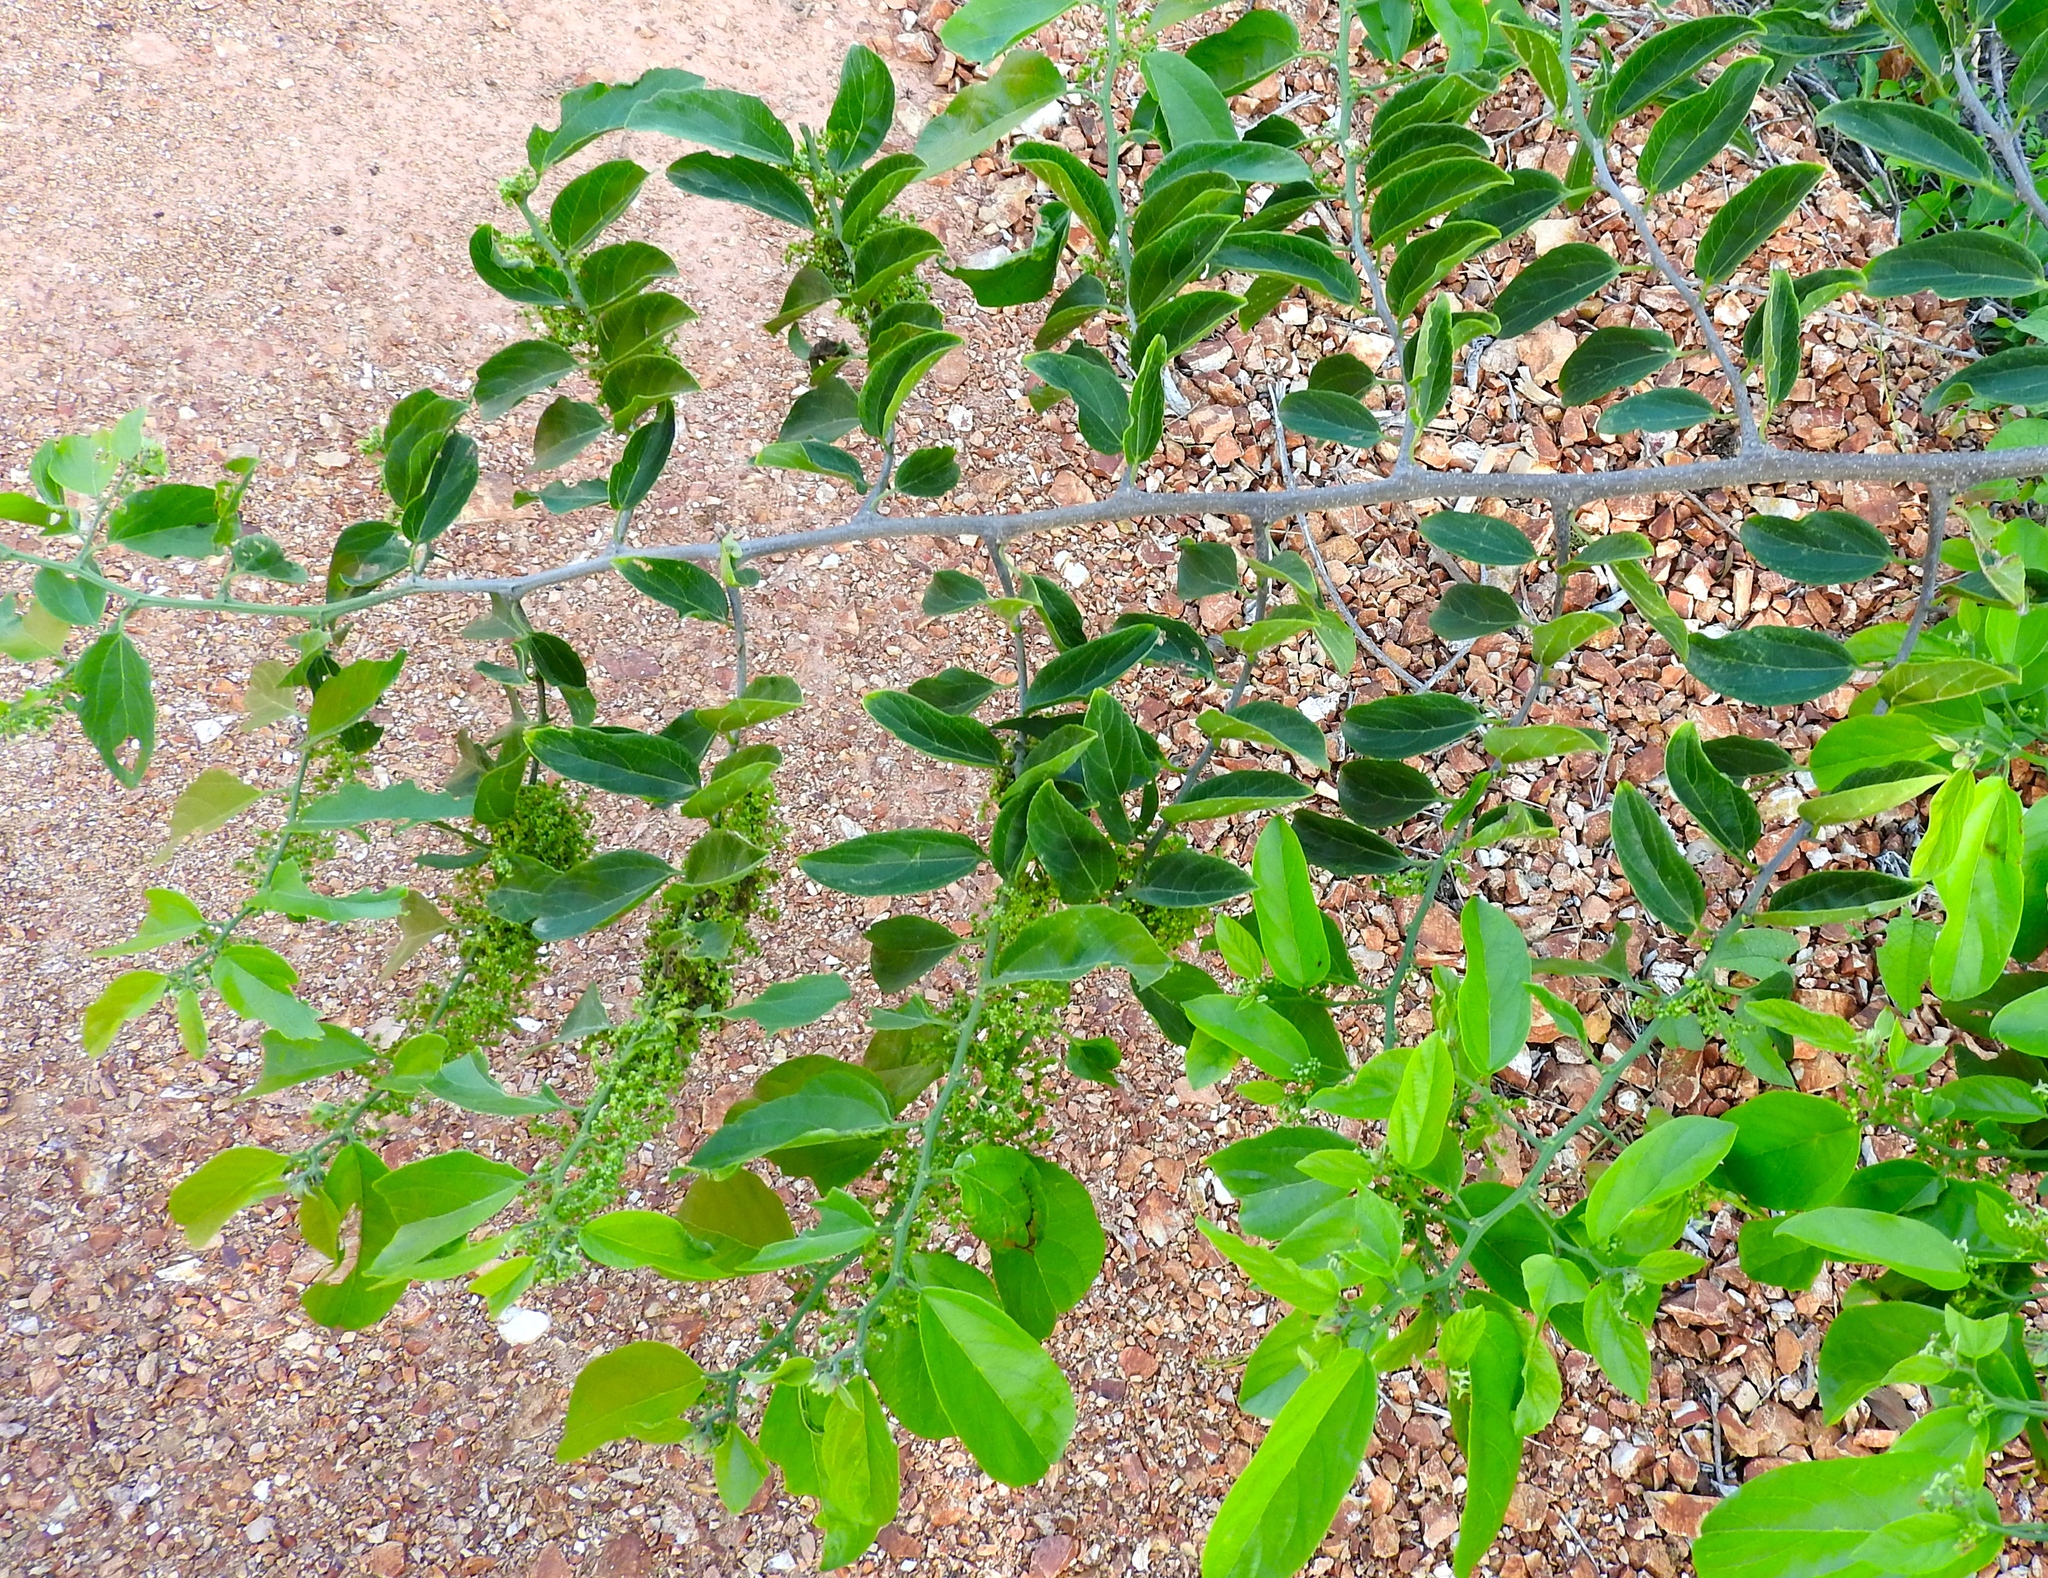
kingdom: Plantae
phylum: Tracheophyta
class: Magnoliopsida
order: Rosales
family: Cannabaceae
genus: Celtis
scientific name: Celtis iguanaea
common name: Iguana hackberry
